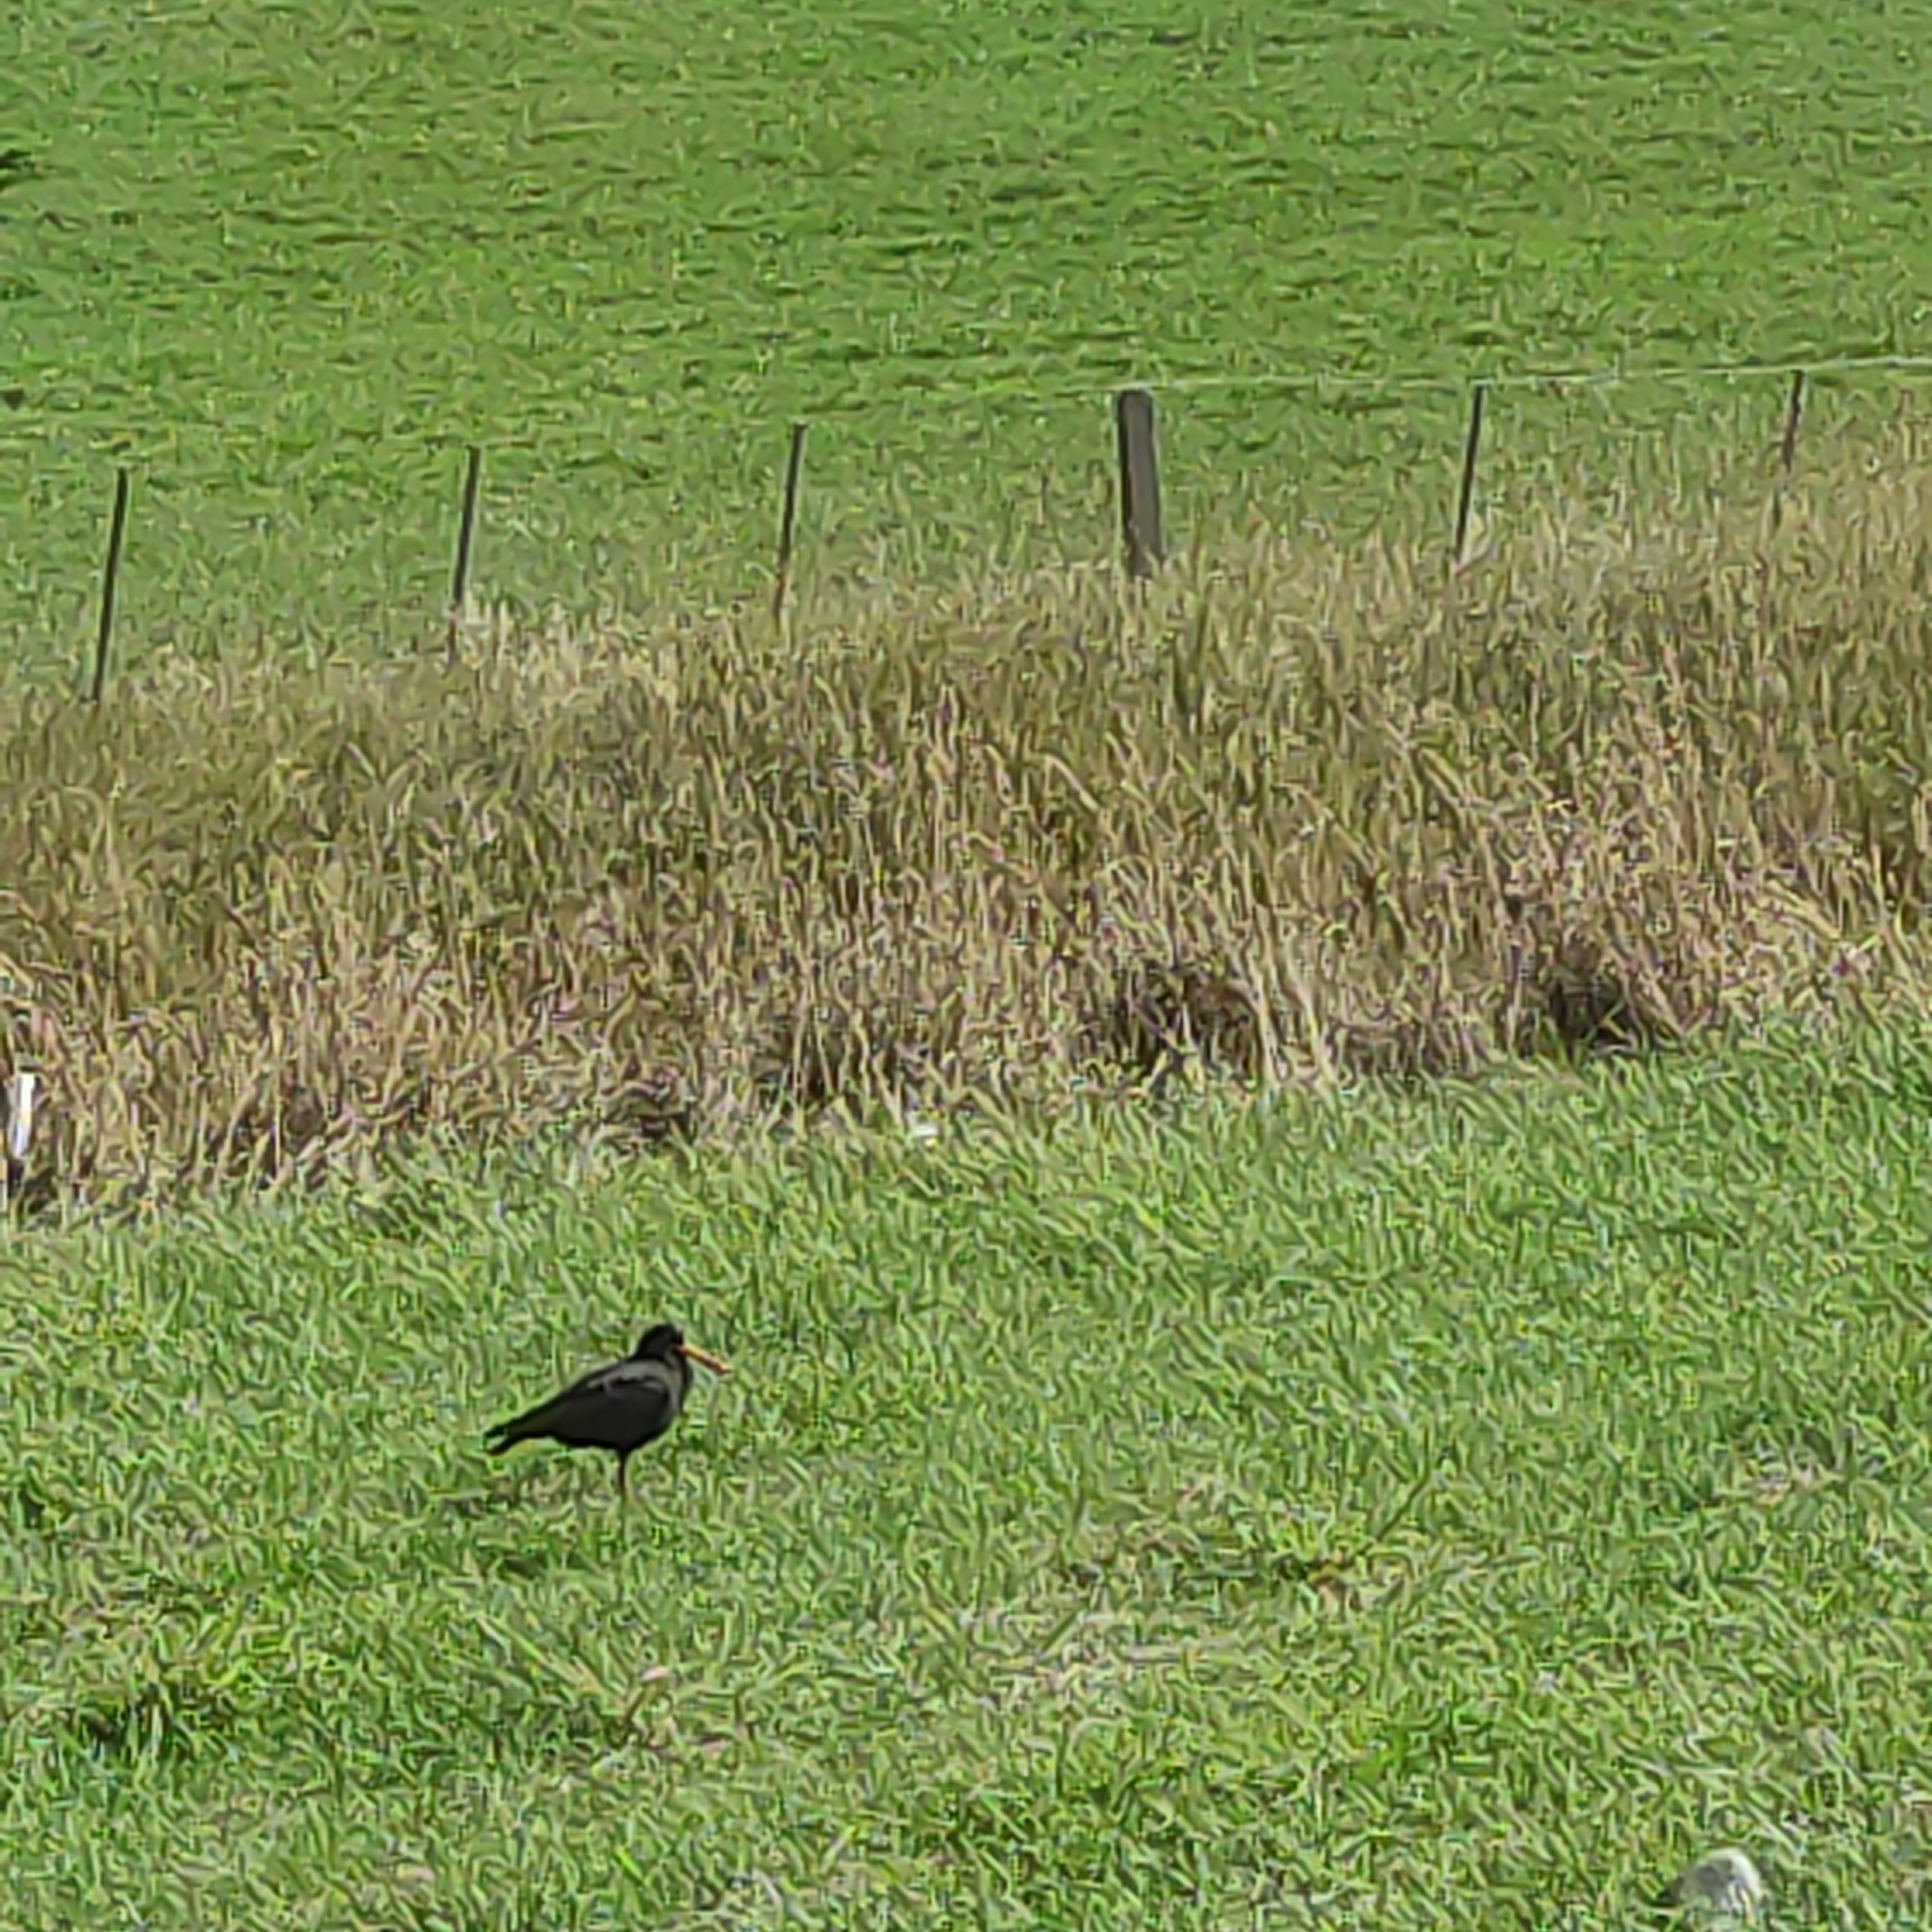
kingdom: Animalia
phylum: Chordata
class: Aves
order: Charadriiformes
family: Haematopodidae
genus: Haematopus
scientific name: Haematopus unicolor
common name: Variable oystercatcher
